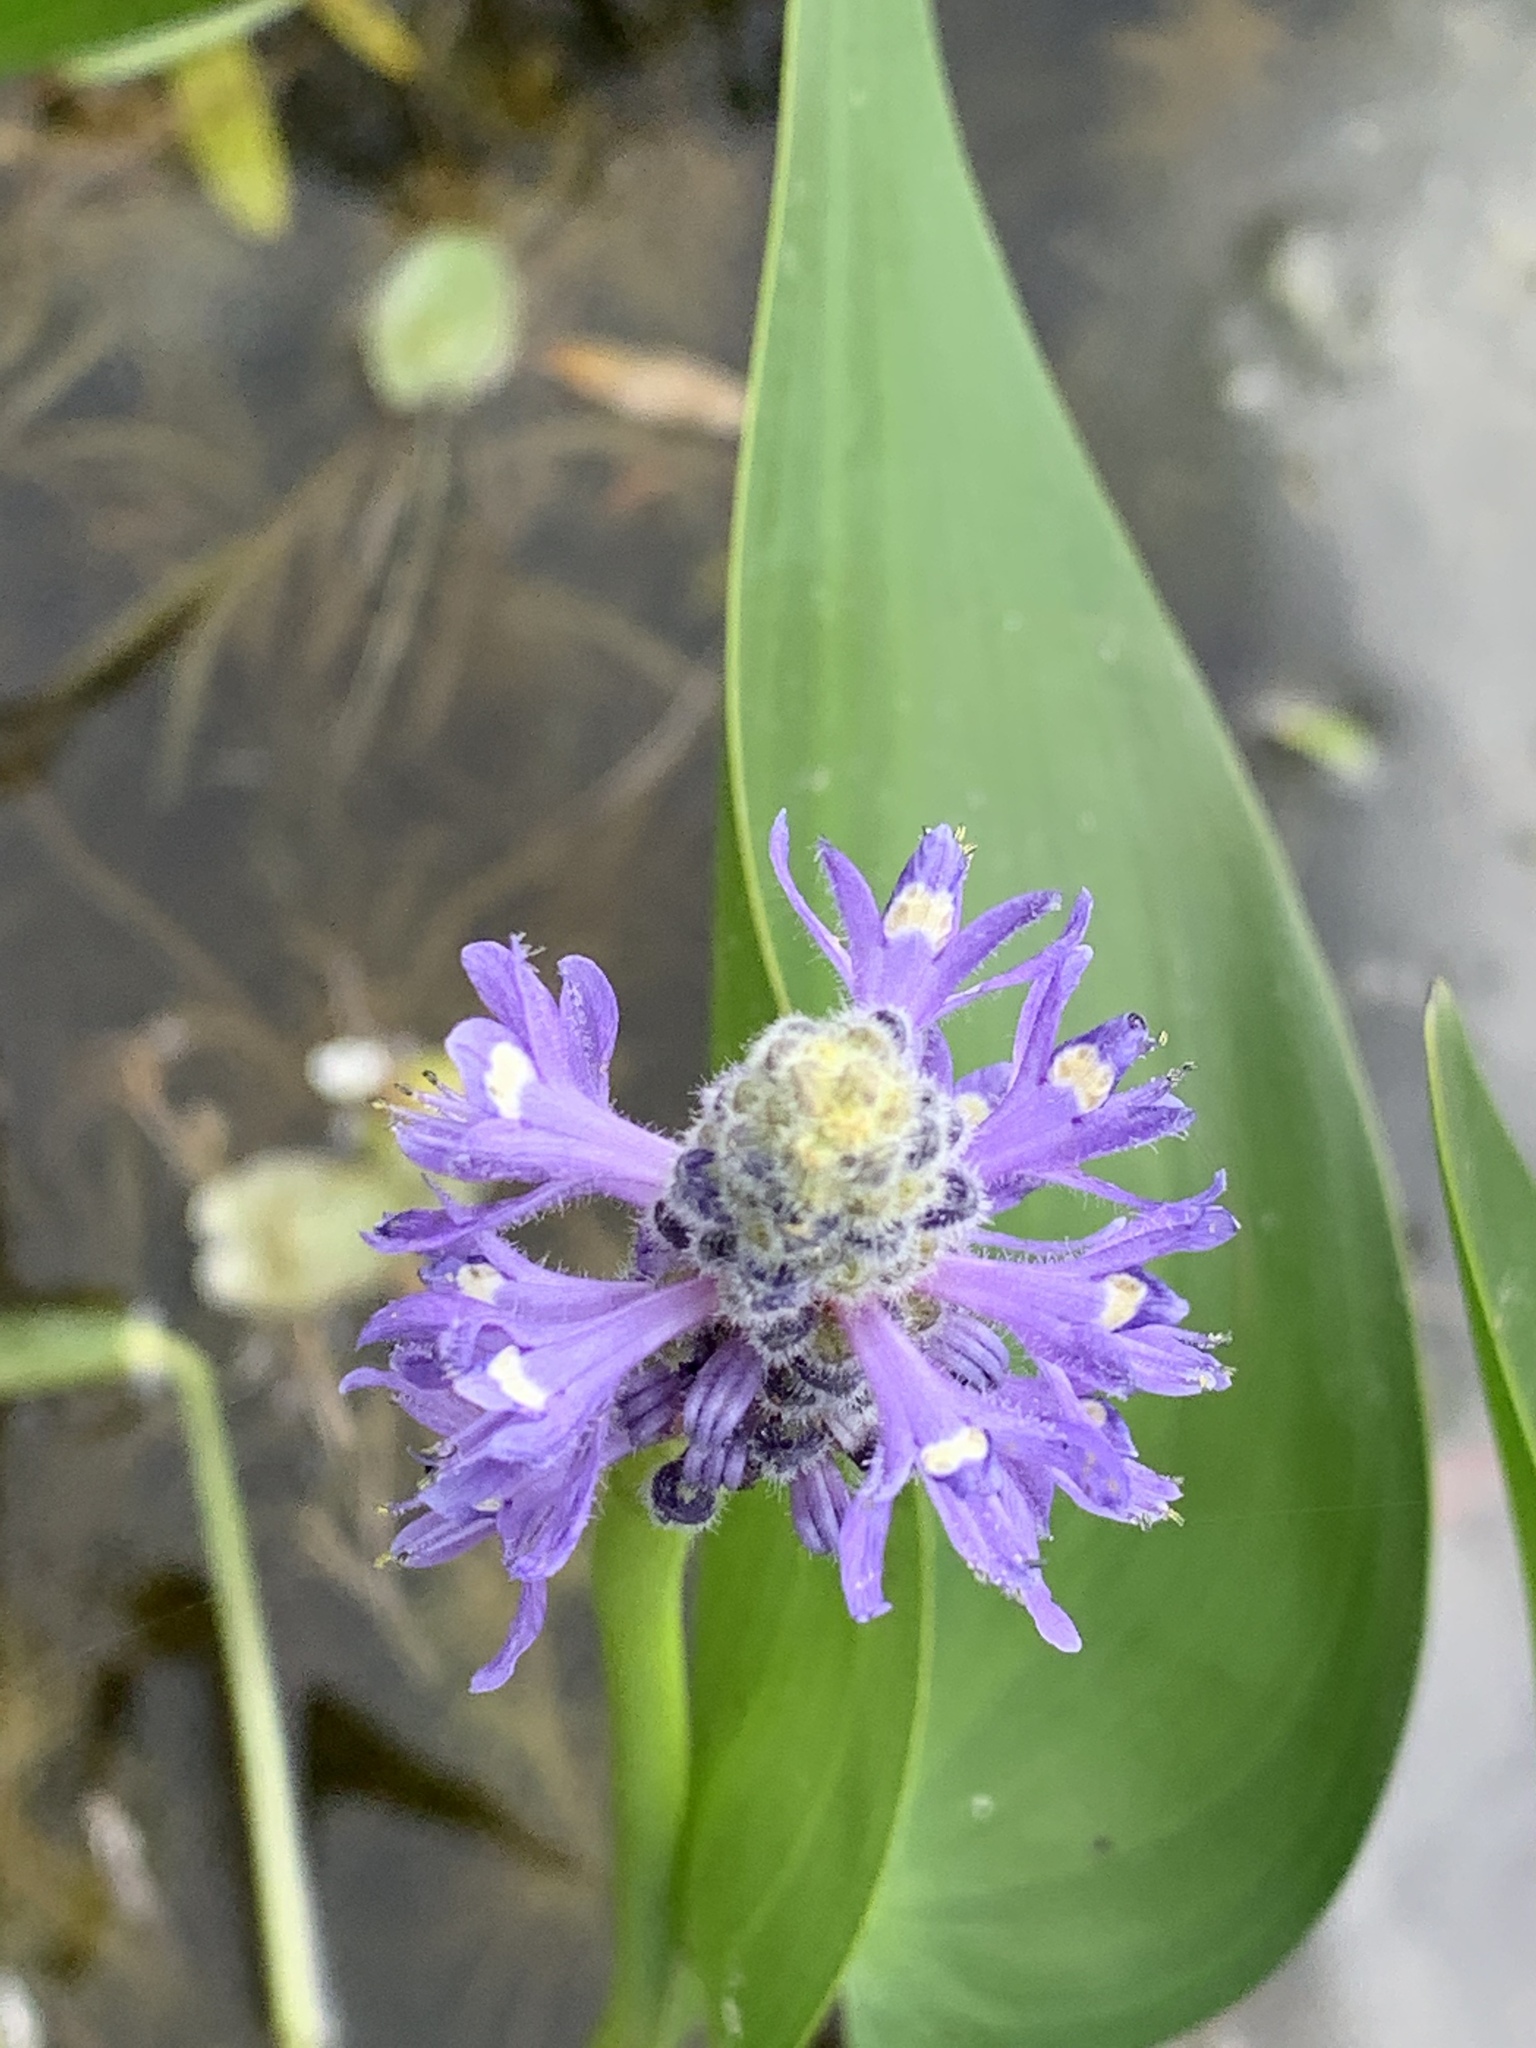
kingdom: Plantae
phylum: Tracheophyta
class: Liliopsida
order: Commelinales
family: Pontederiaceae
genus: Pontederia
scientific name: Pontederia cordata
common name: Pickerelweed
